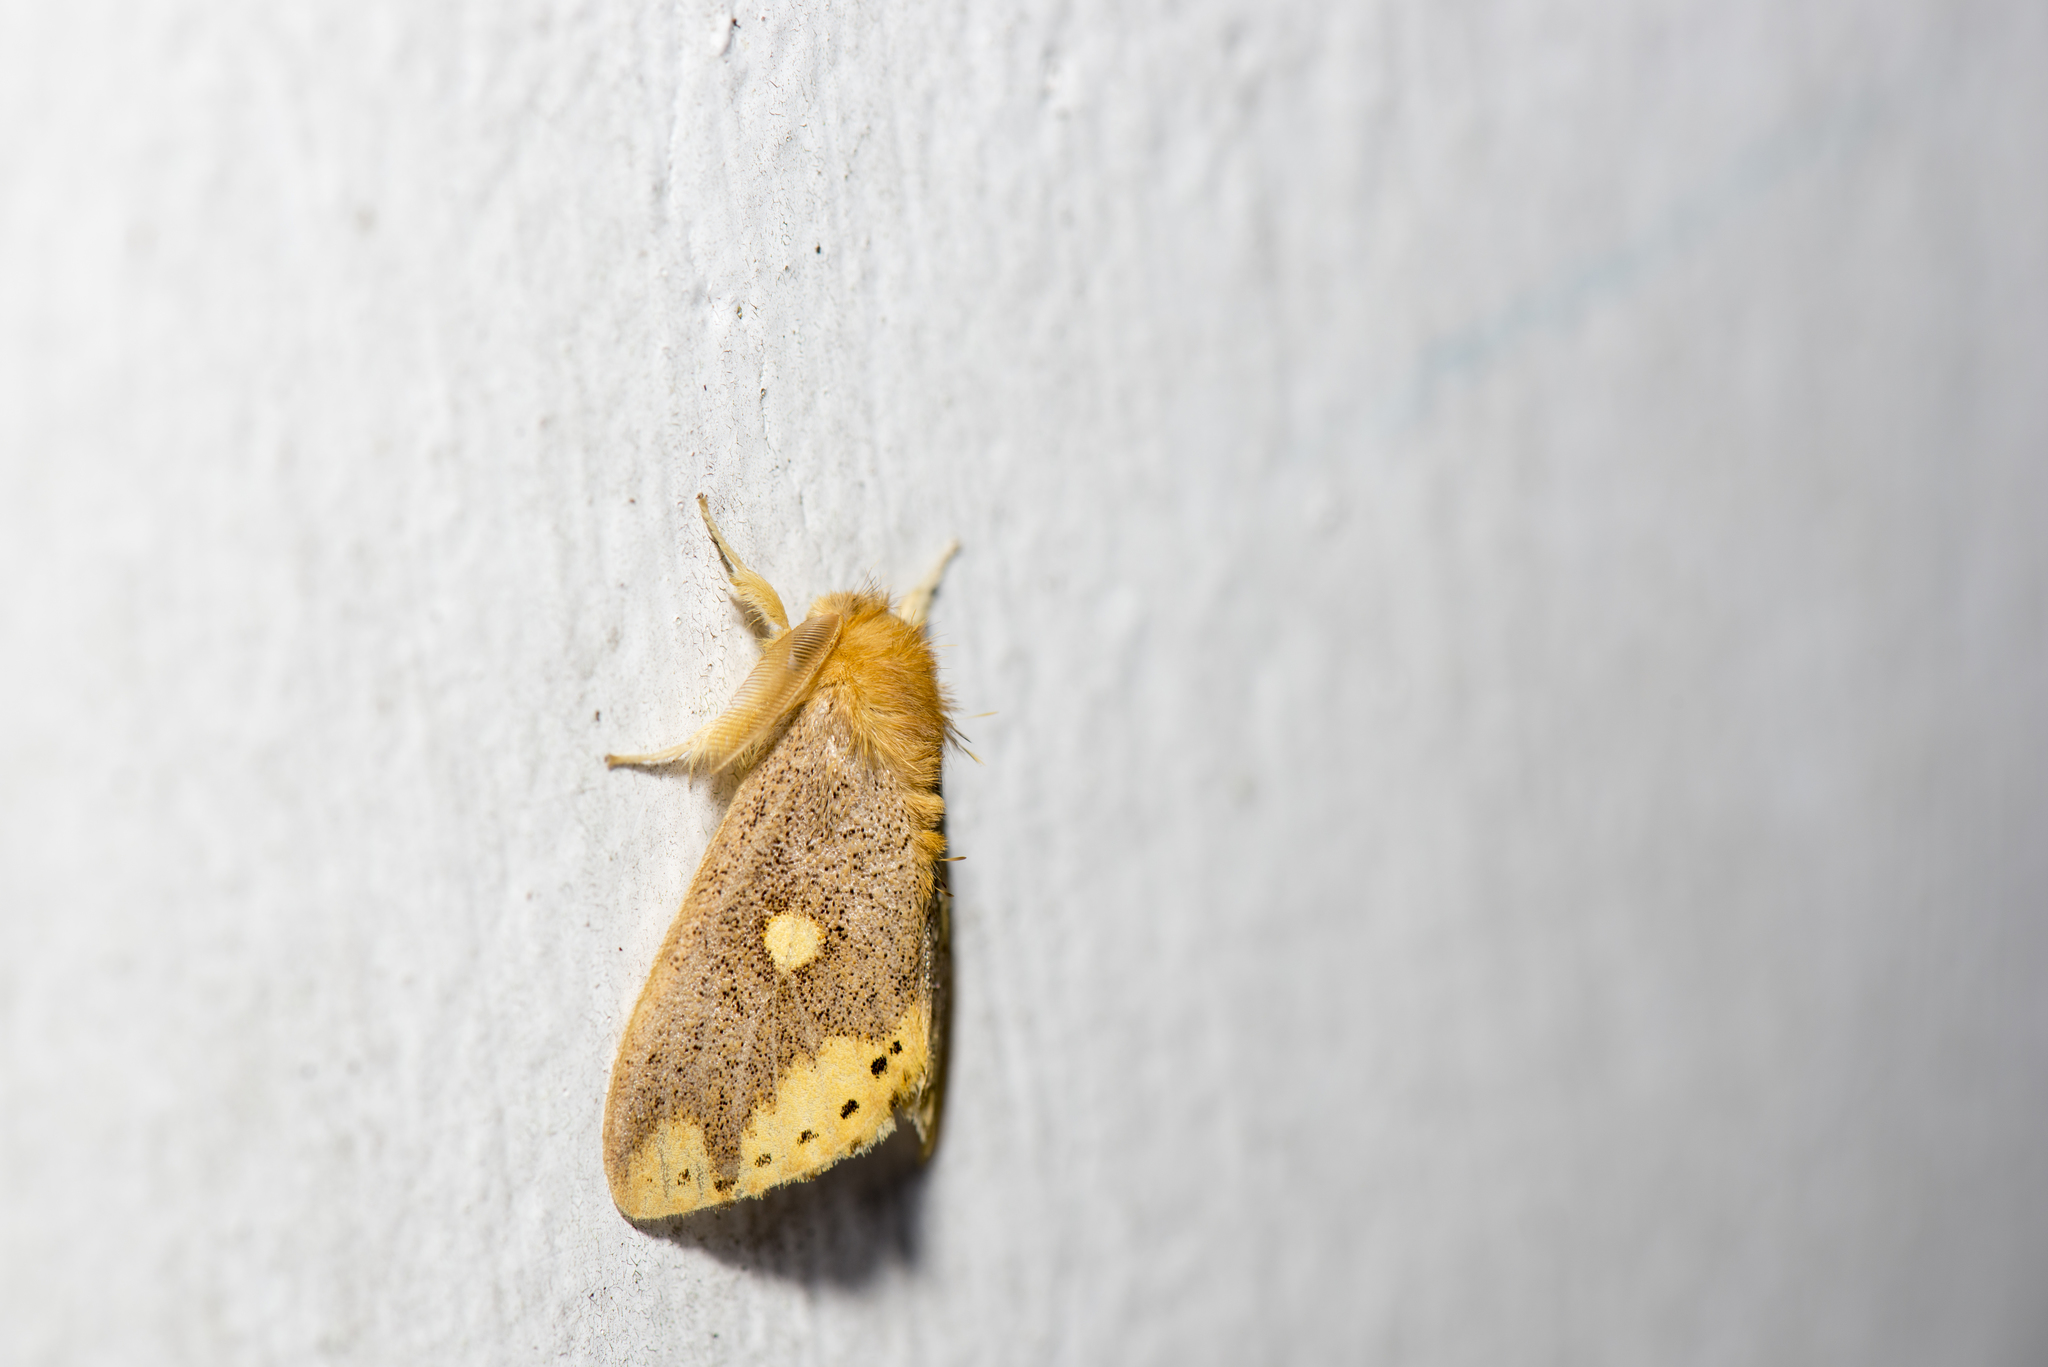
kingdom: Animalia
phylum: Arthropoda
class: Insecta
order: Lepidoptera
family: Erebidae
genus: Euproctis
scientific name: Euproctis marginata
